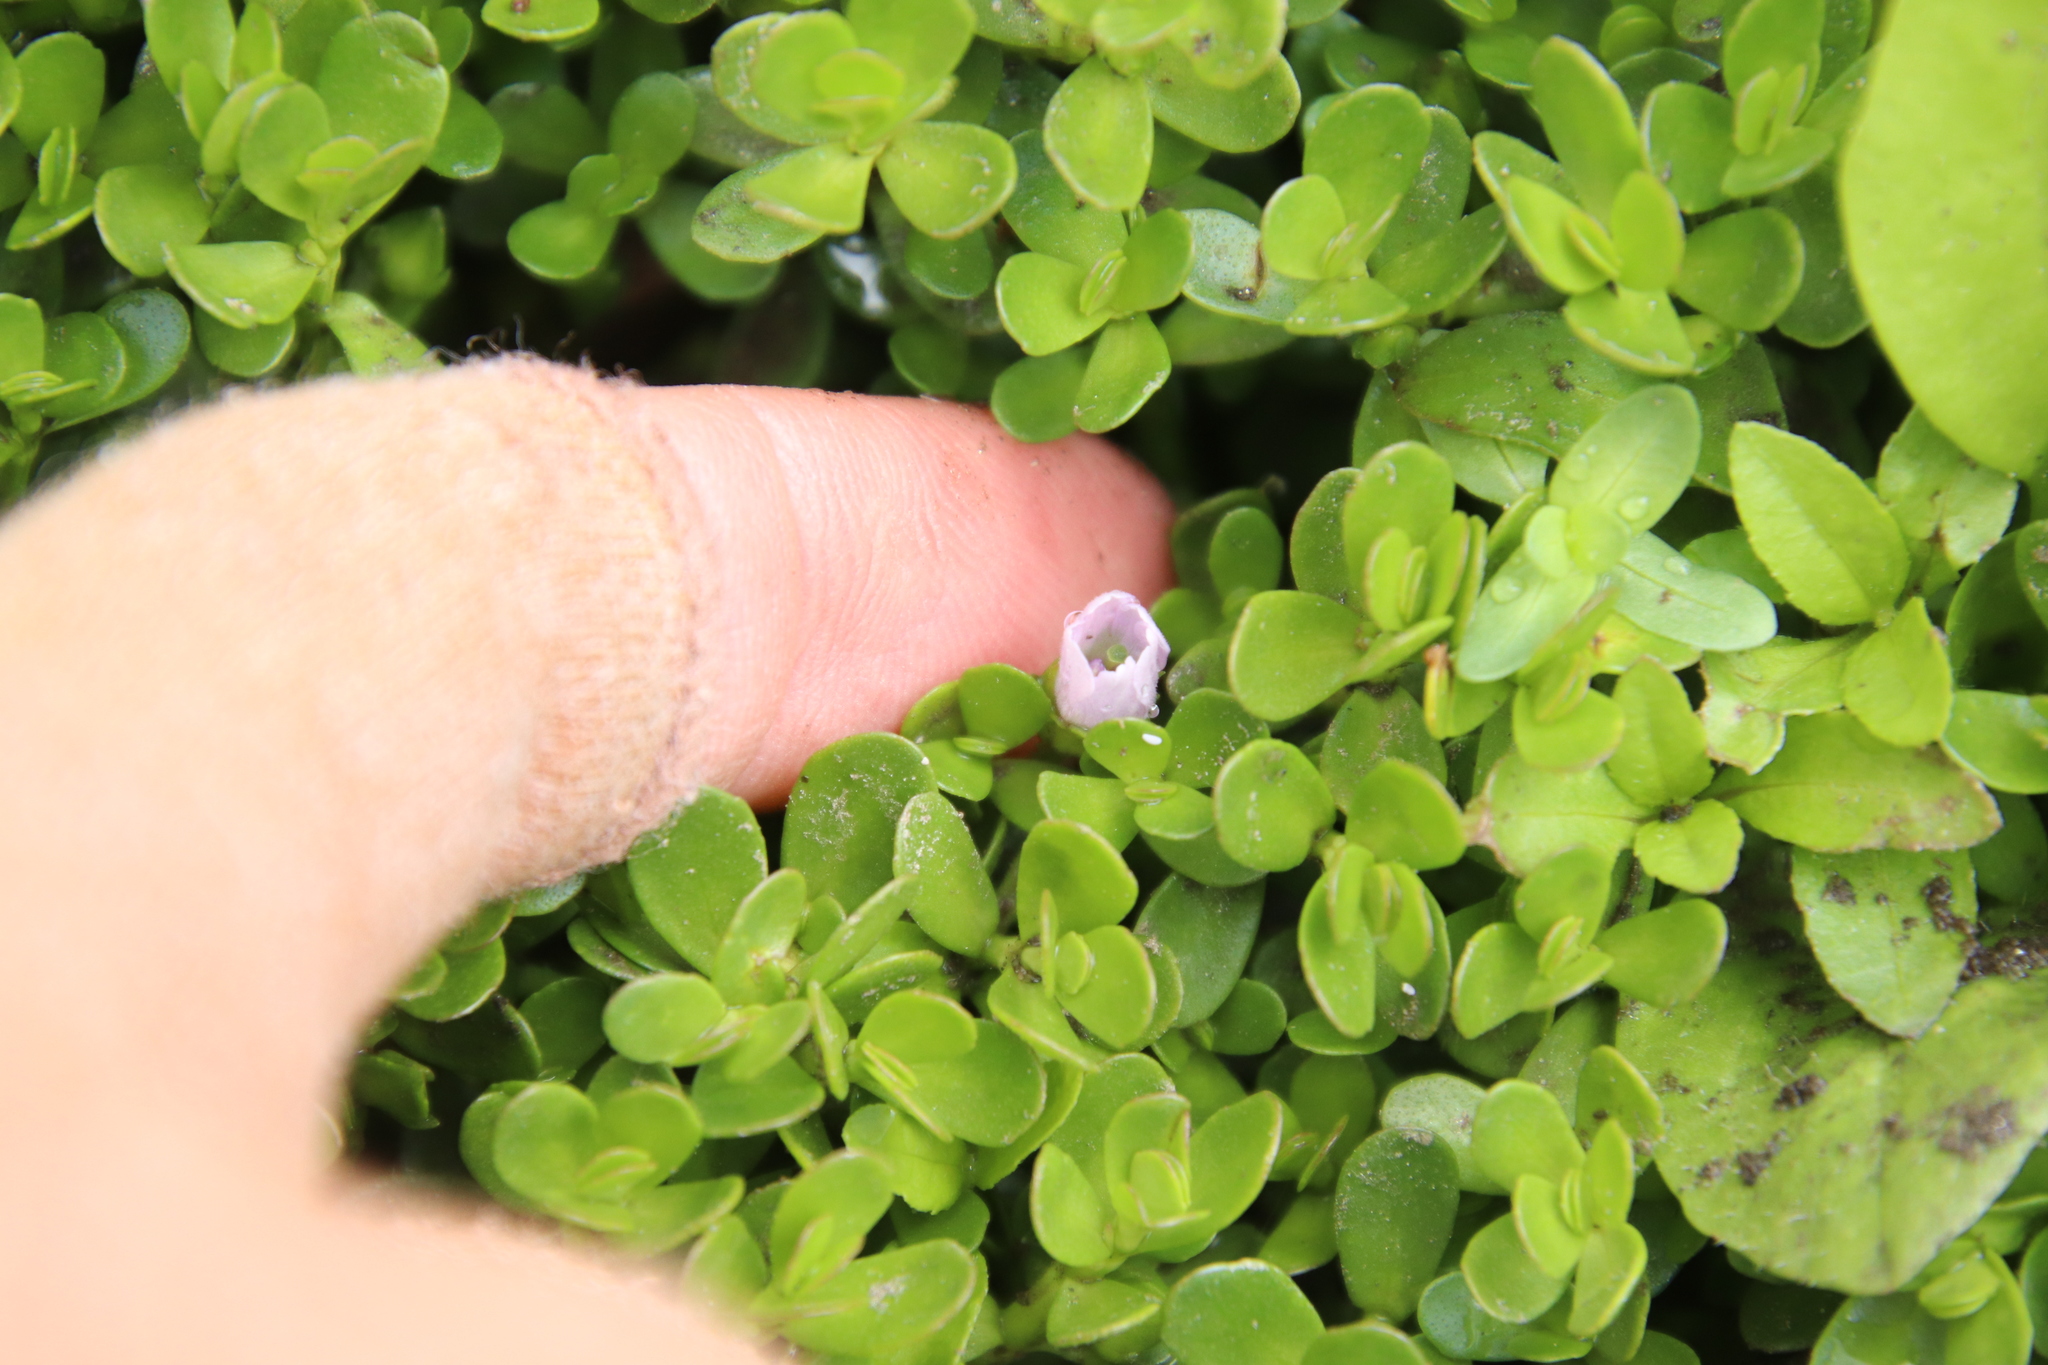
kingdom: Plantae
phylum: Tracheophyta
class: Magnoliopsida
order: Lamiales
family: Plantaginaceae
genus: Bacopa
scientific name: Bacopa monnieri
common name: Indian-pennywort
